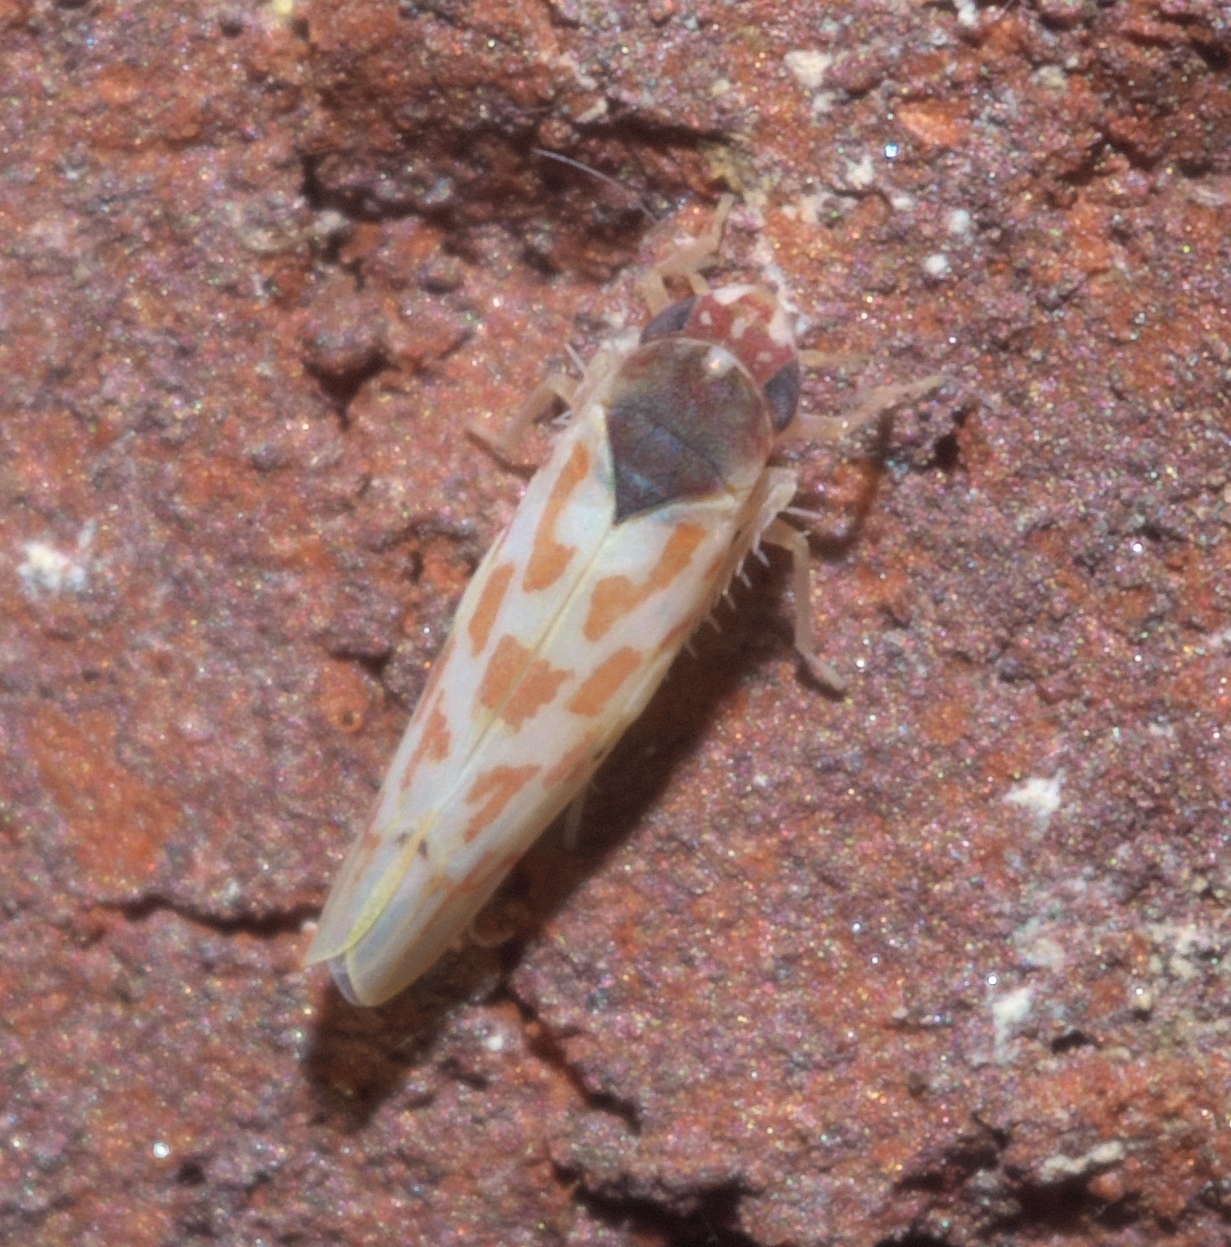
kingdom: Animalia
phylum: Arthropoda
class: Insecta
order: Hemiptera
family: Cicadellidae
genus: Eratoneura
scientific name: Eratoneura ardens
